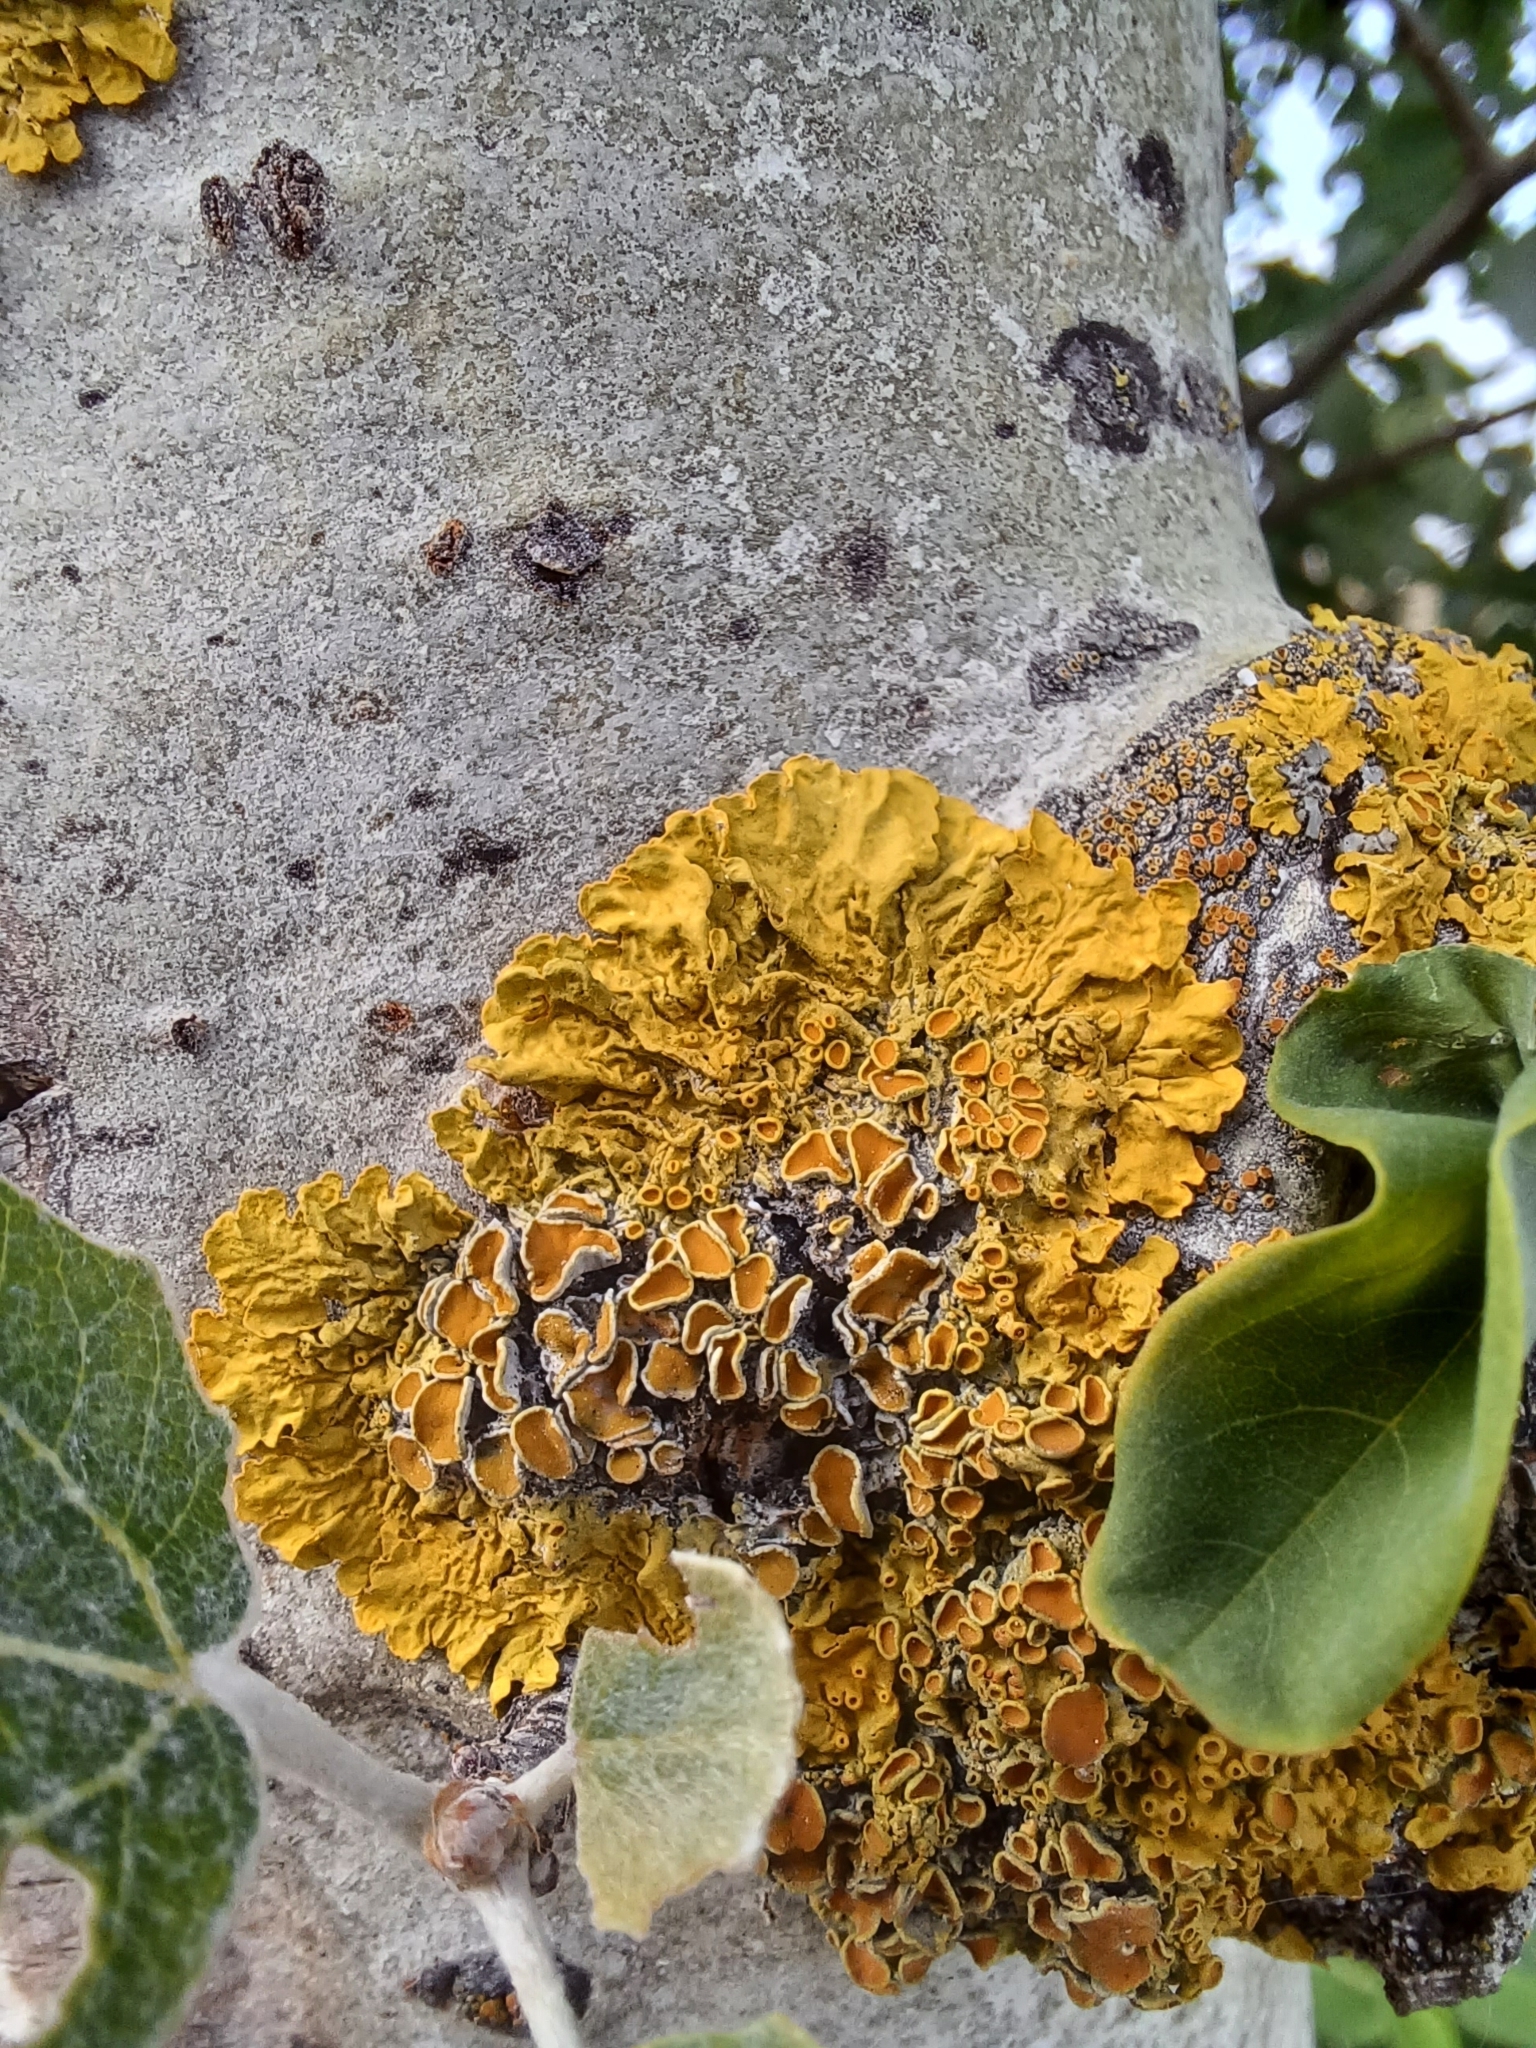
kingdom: Fungi
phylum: Ascomycota
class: Lecanoromycetes
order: Teloschistales
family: Teloschistaceae
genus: Xanthoria
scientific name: Xanthoria parietina
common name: Common orange lichen
